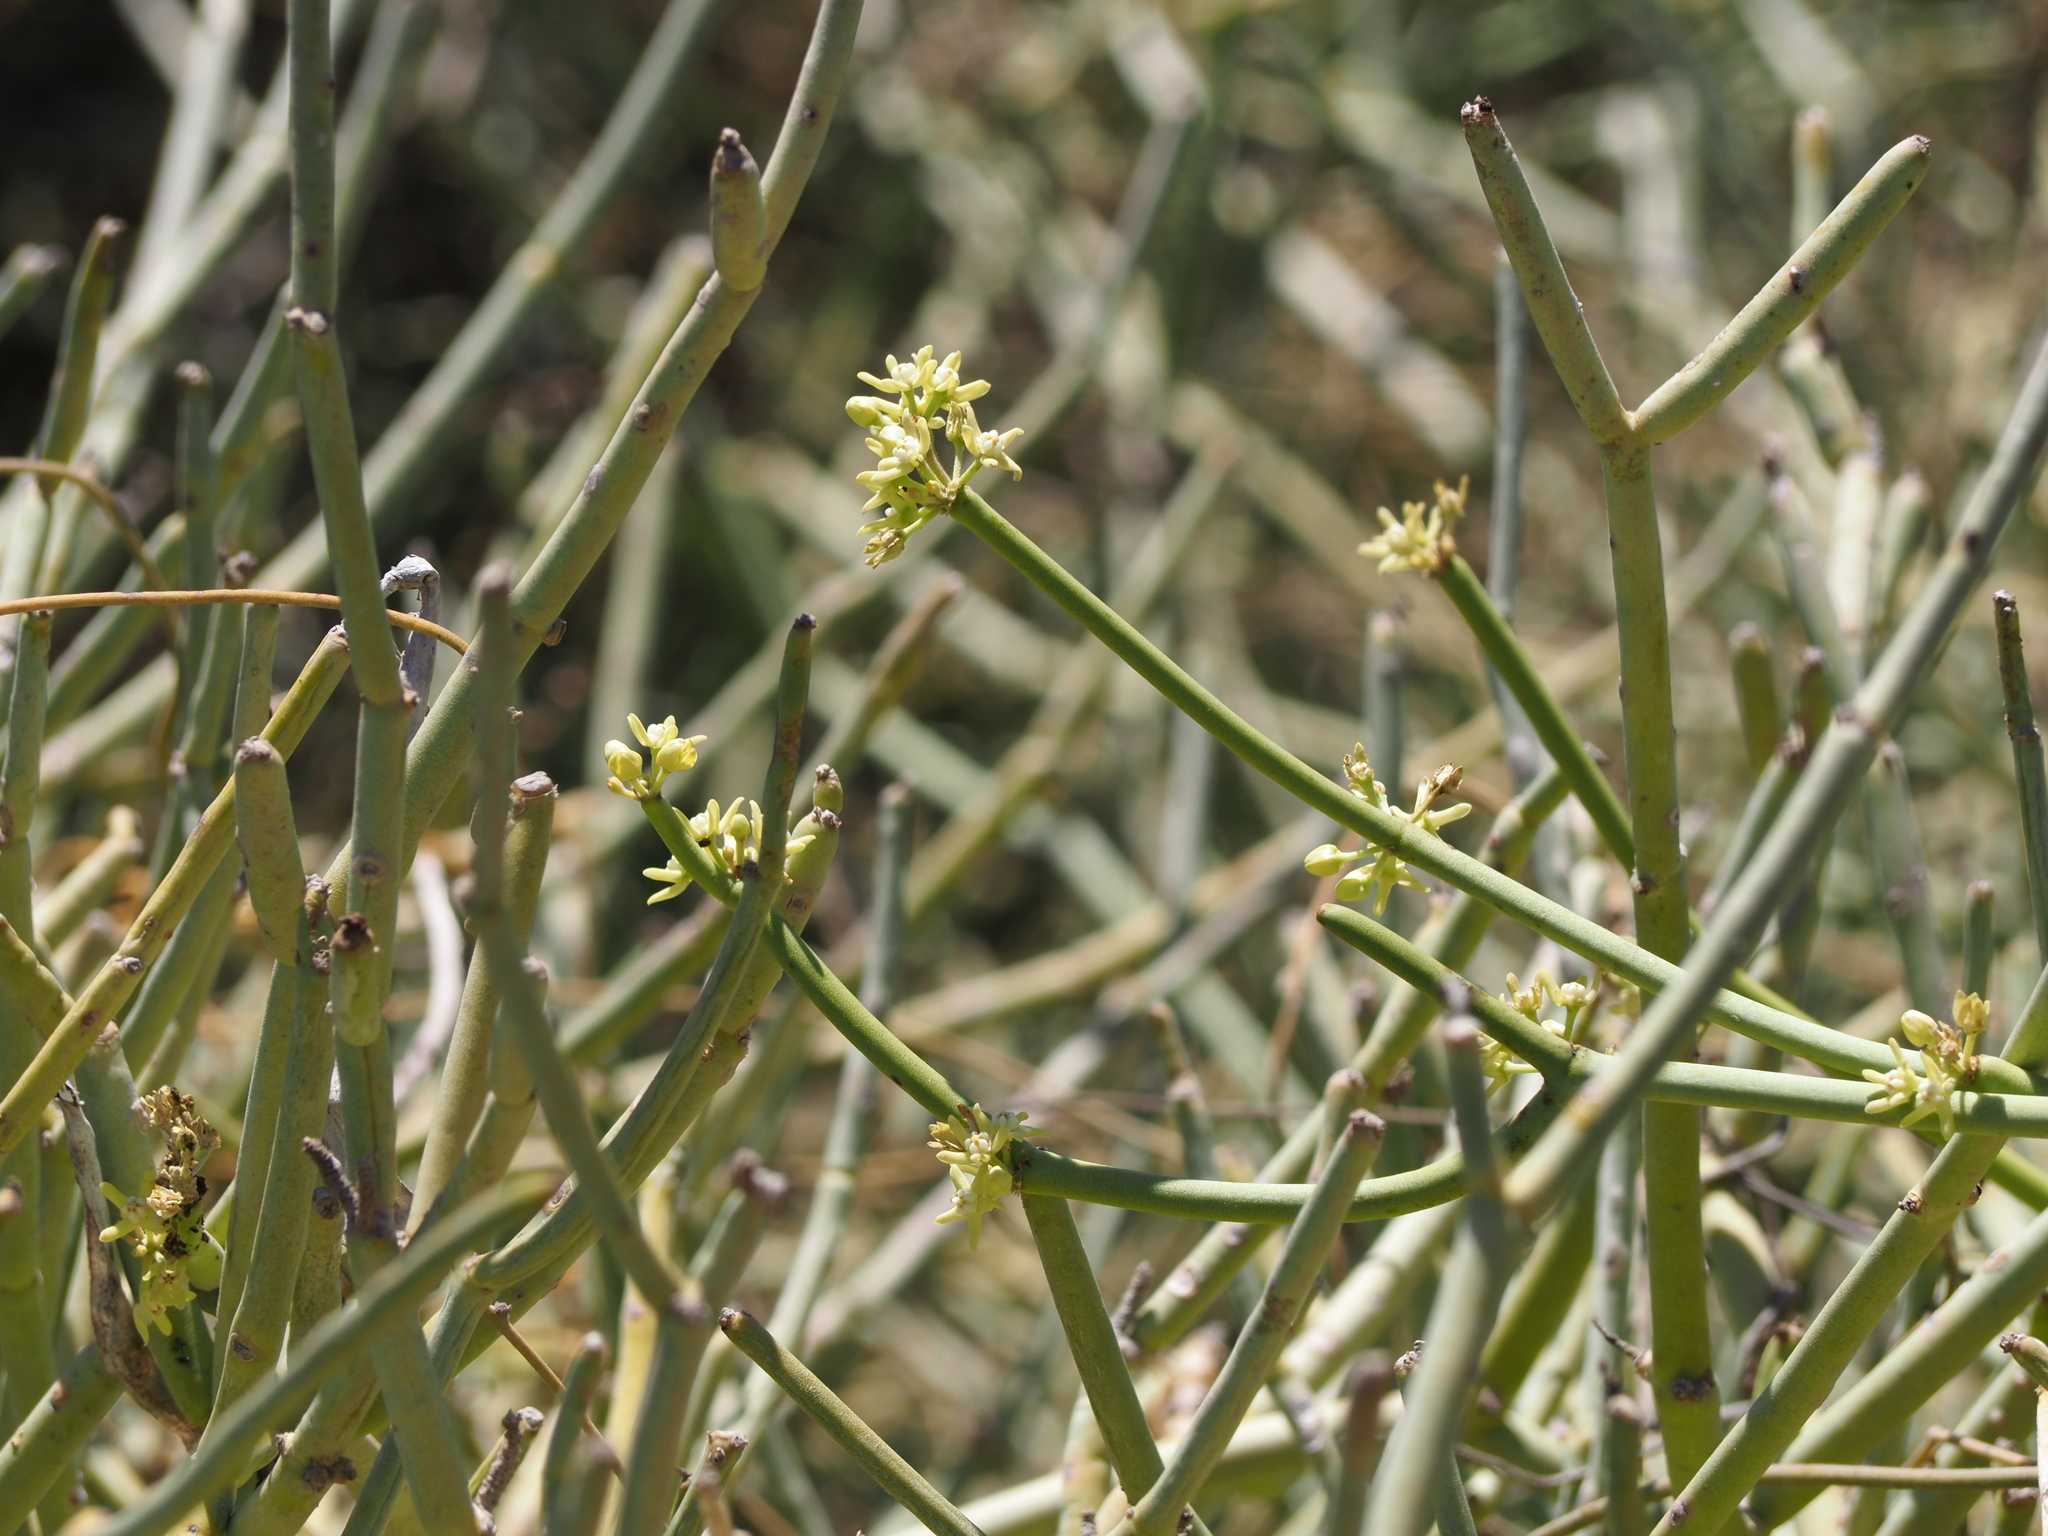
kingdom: Plantae
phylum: Tracheophyta
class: Magnoliopsida
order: Gentianales
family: Apocynaceae
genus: Cynanchum
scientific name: Cynanchum viminale
